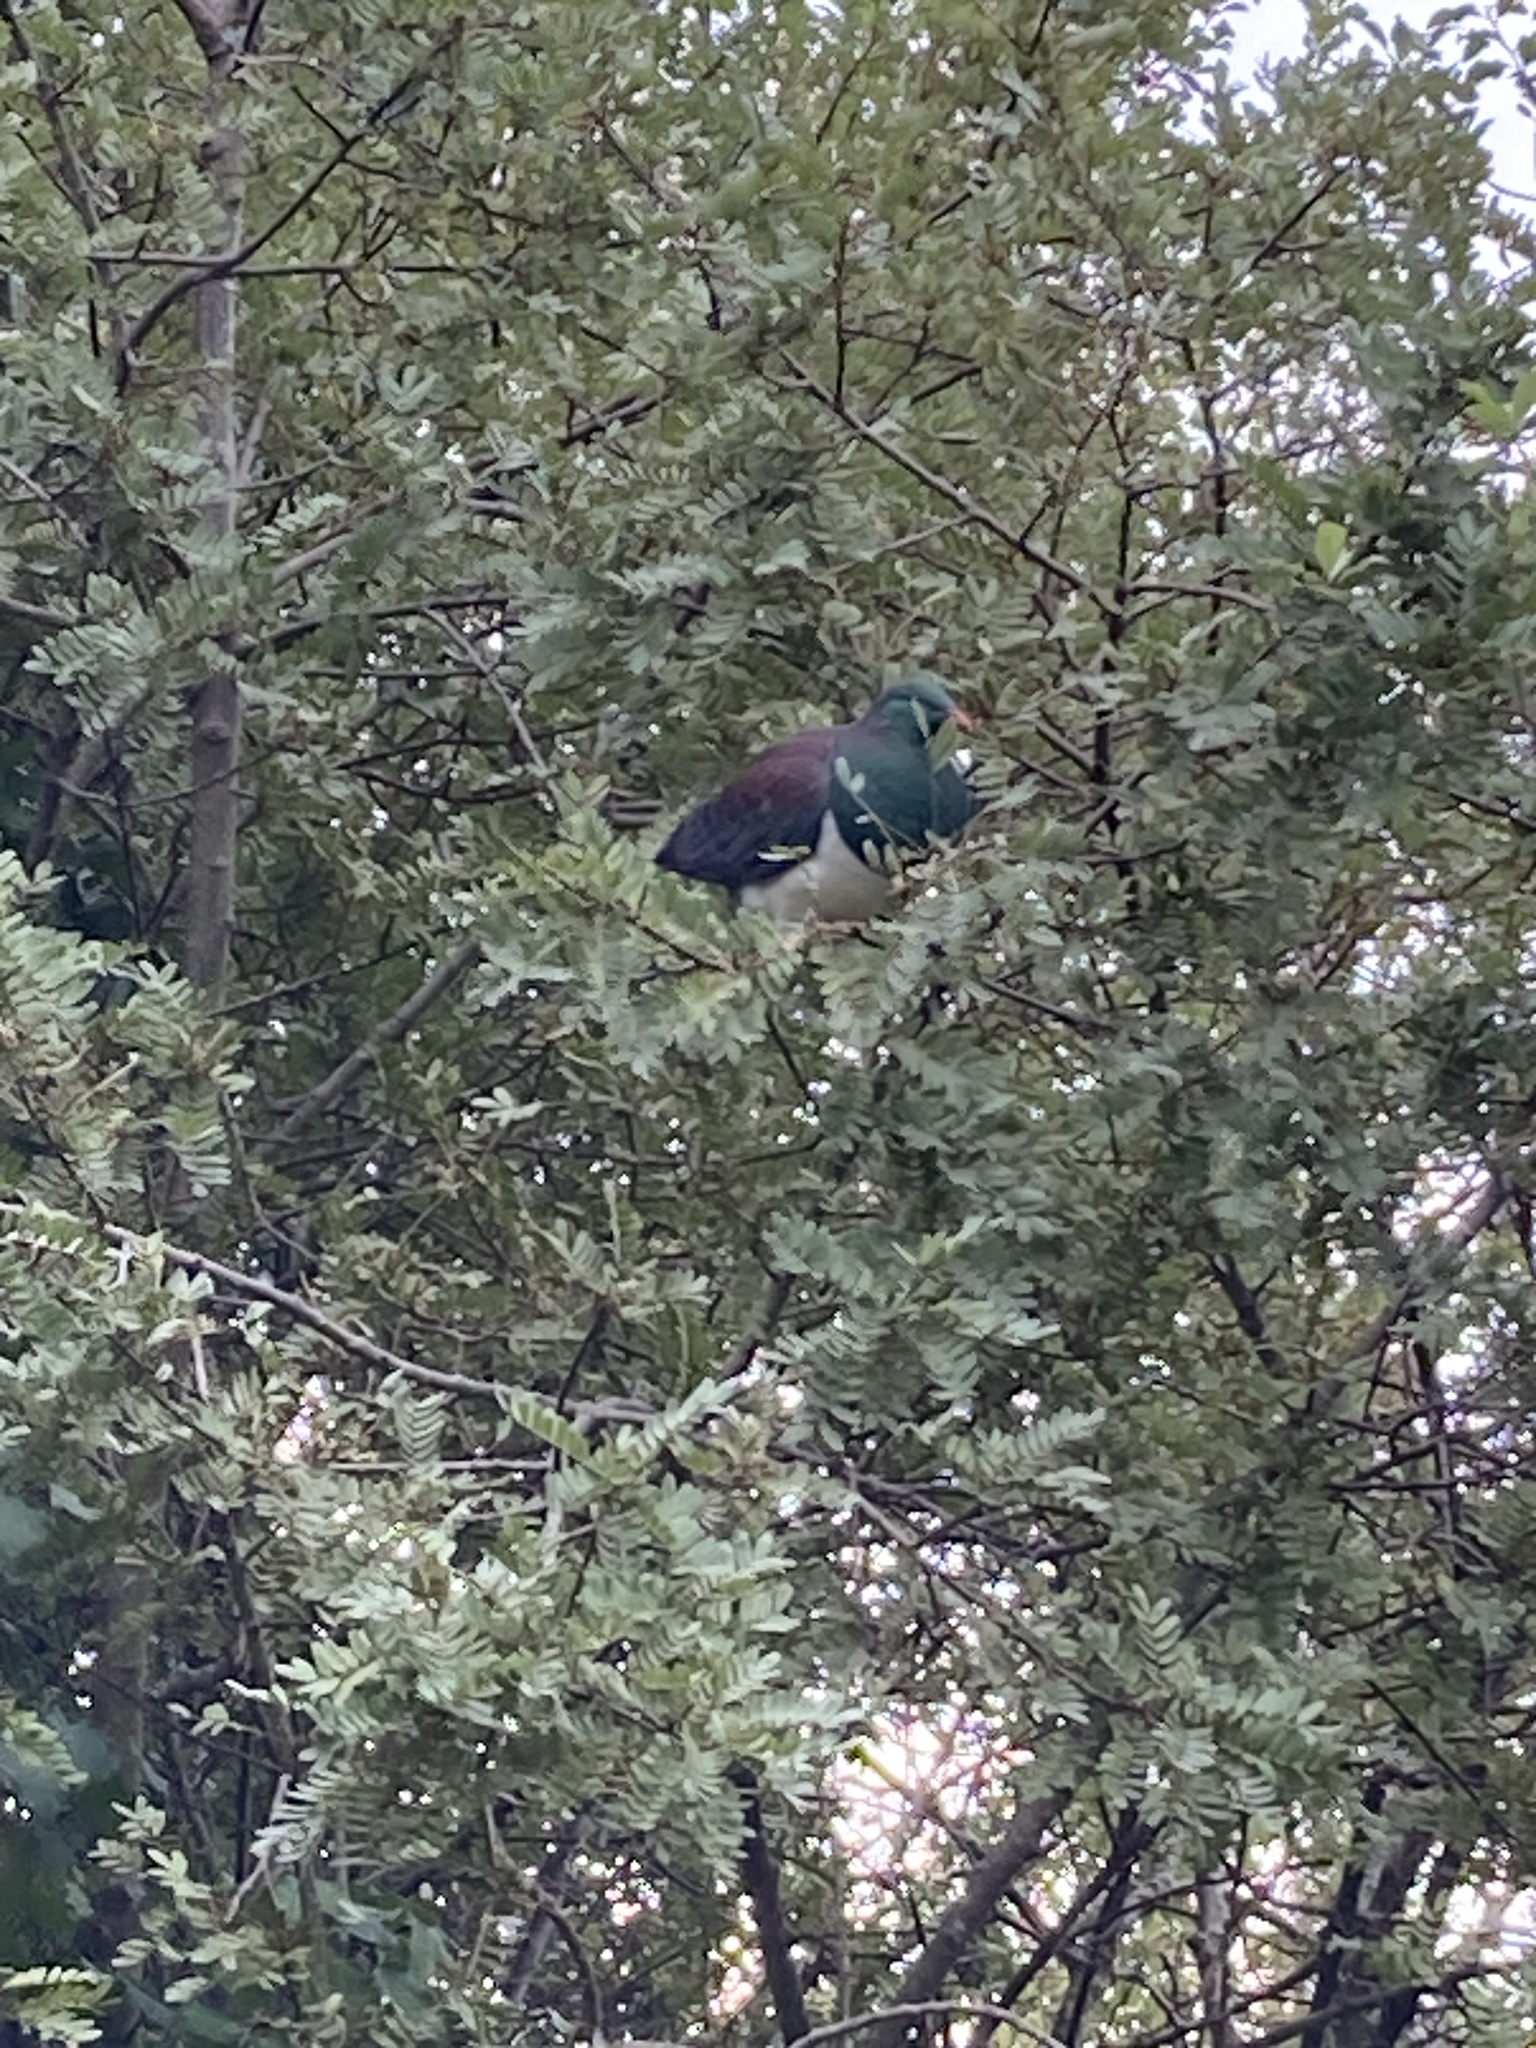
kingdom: Animalia
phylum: Chordata
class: Aves
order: Columbiformes
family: Columbidae
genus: Hemiphaga
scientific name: Hemiphaga novaeseelandiae
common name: New zealand pigeon
